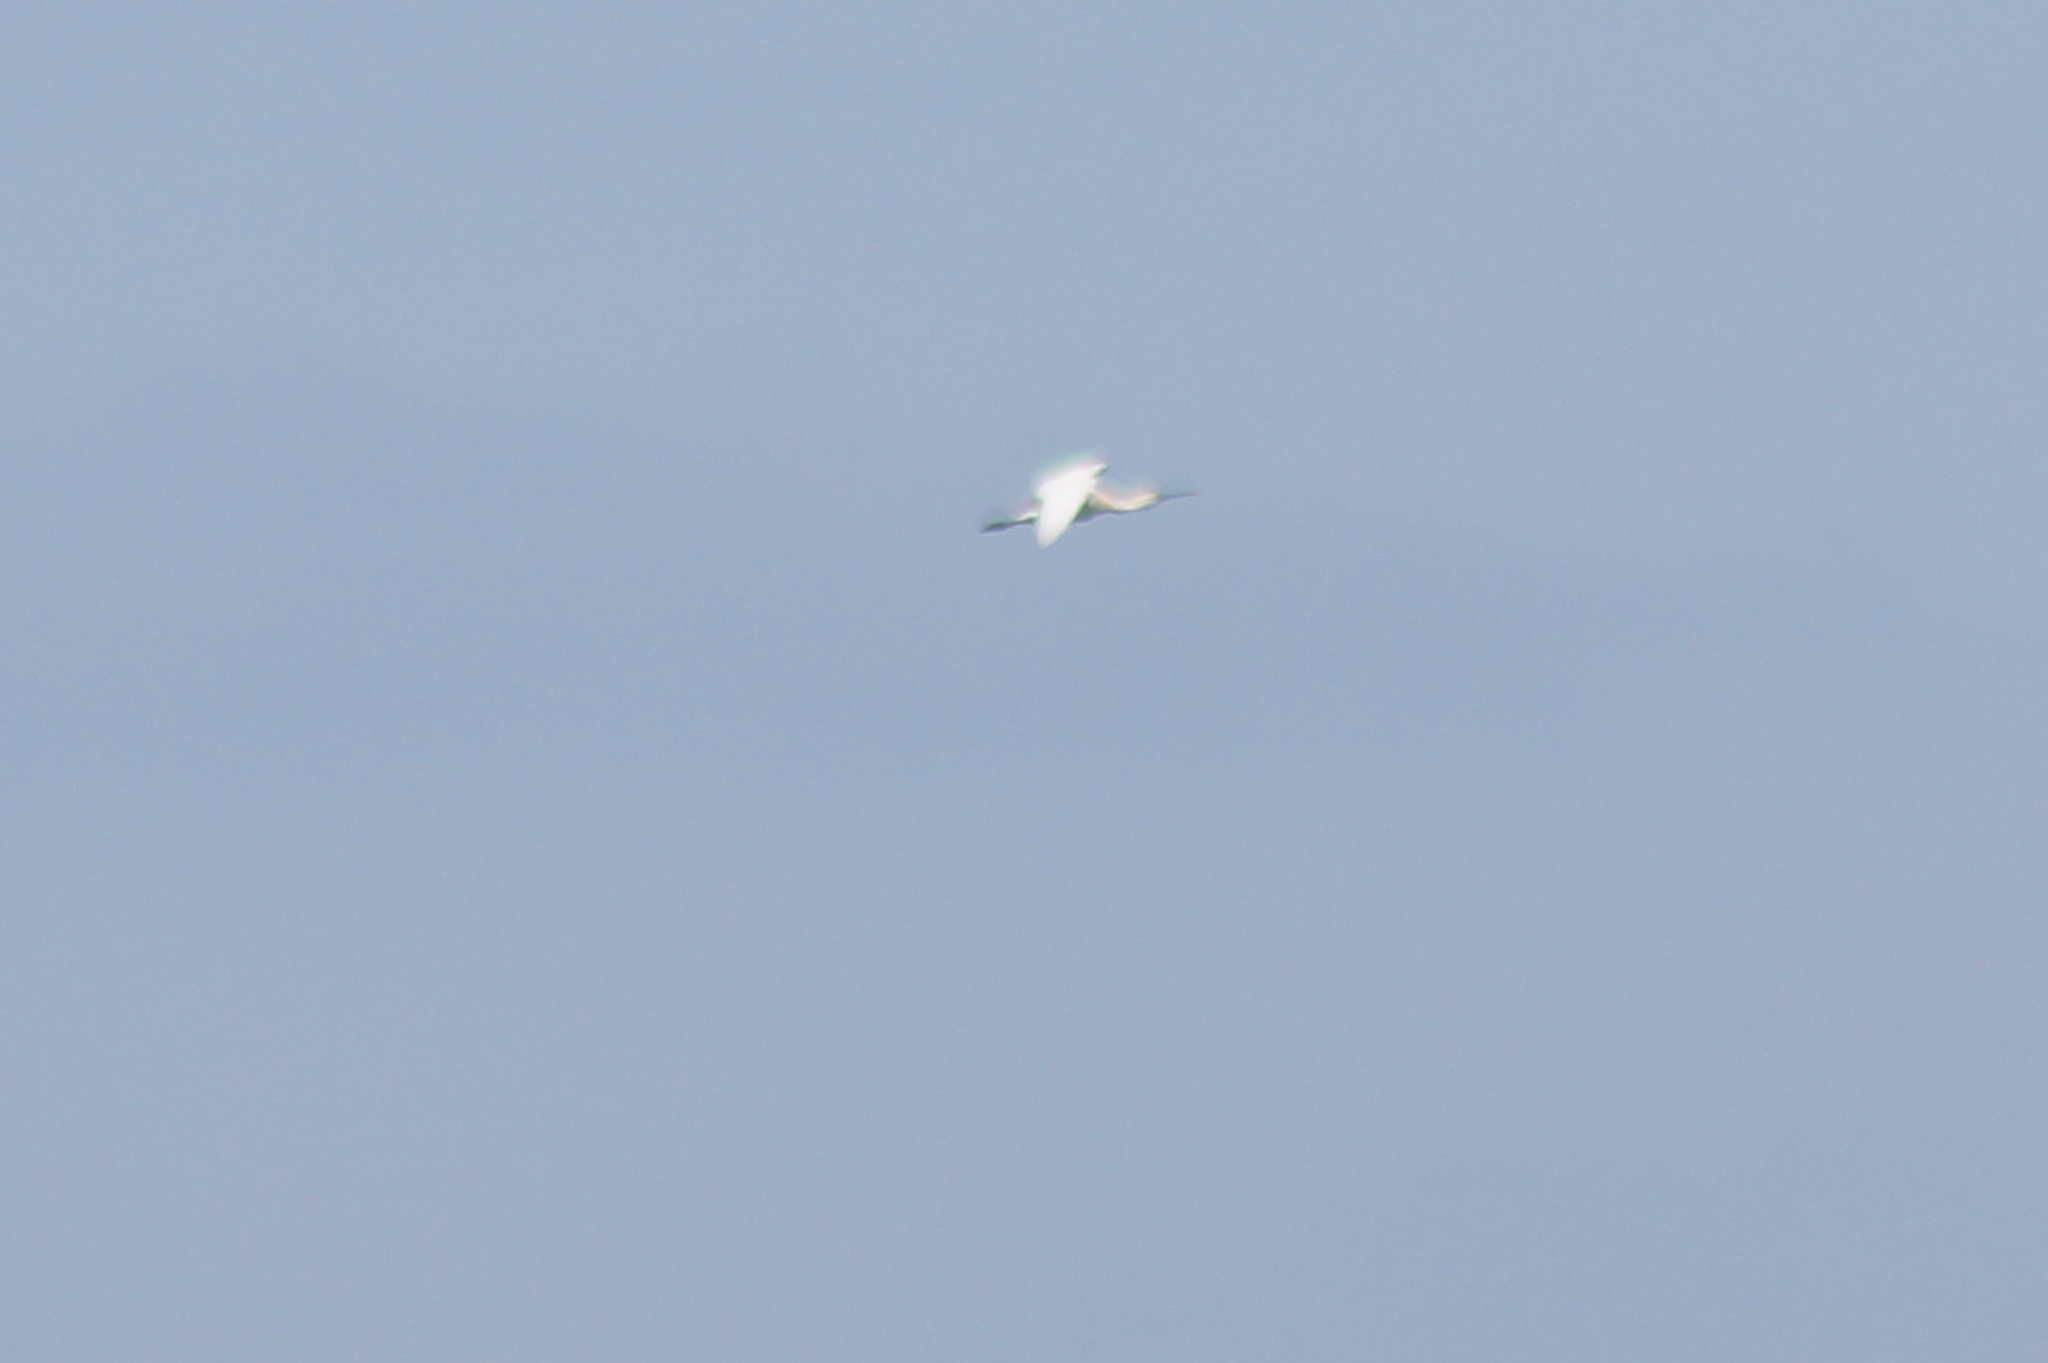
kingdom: Animalia
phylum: Chordata
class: Aves
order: Pelecaniformes
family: Threskiornithidae
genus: Platalea
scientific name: Platalea leucorodia
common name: Eurasian spoonbill
